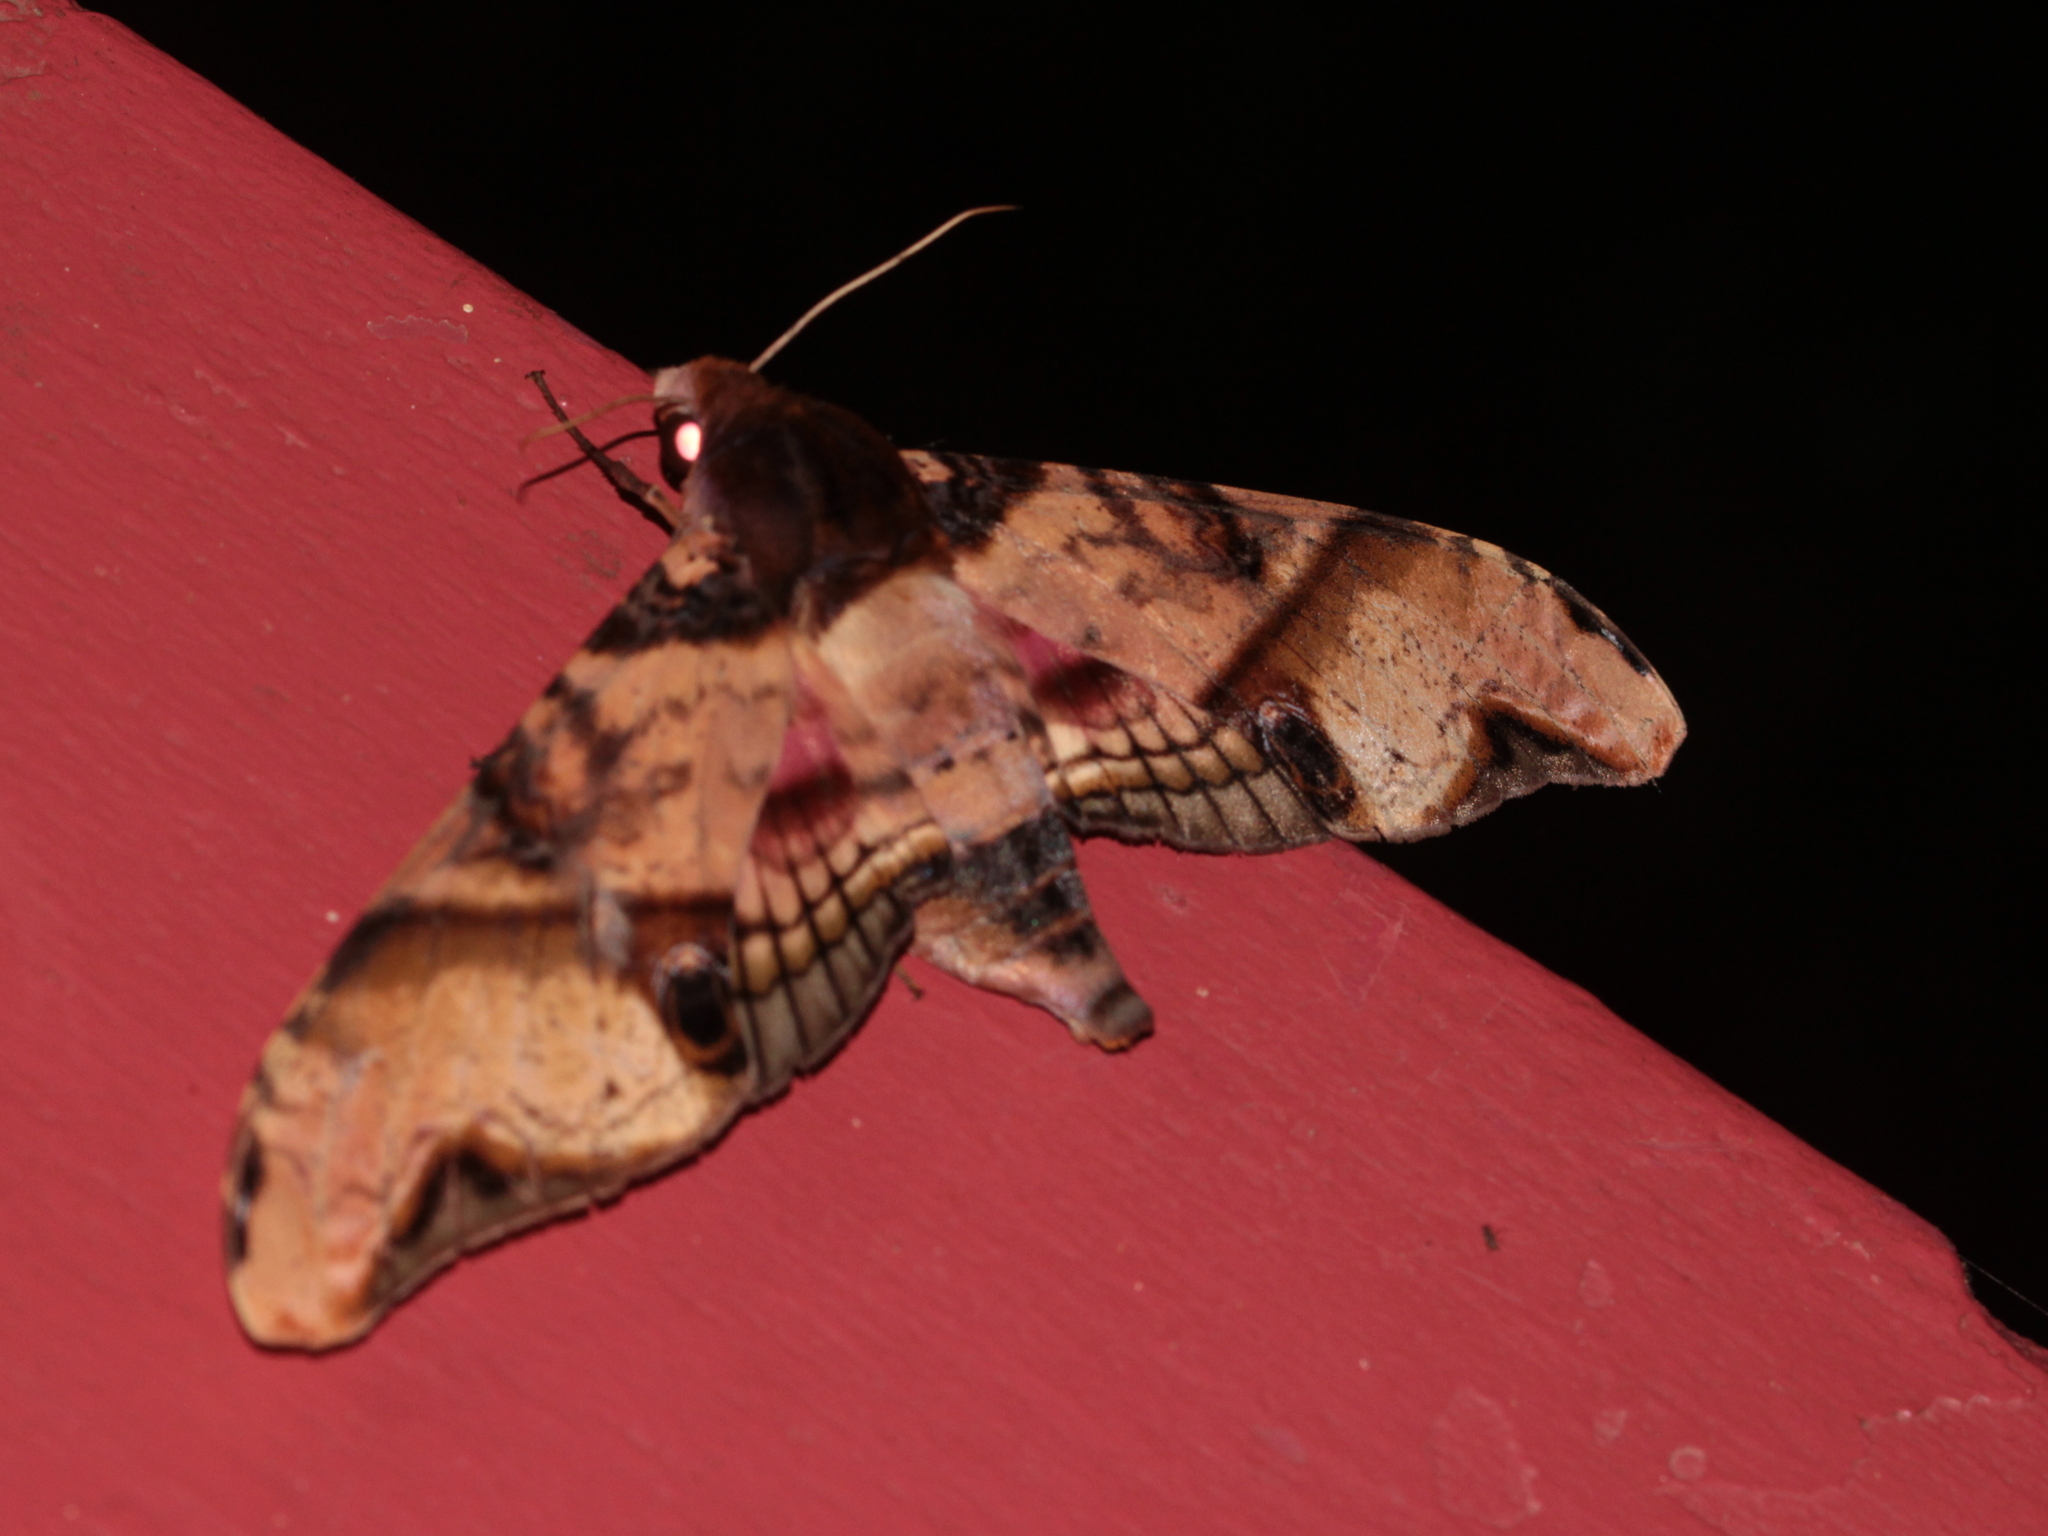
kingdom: Animalia
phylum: Arthropoda
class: Insecta
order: Lepidoptera
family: Sphingidae
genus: Amplypterus
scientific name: Amplypterus panopus
